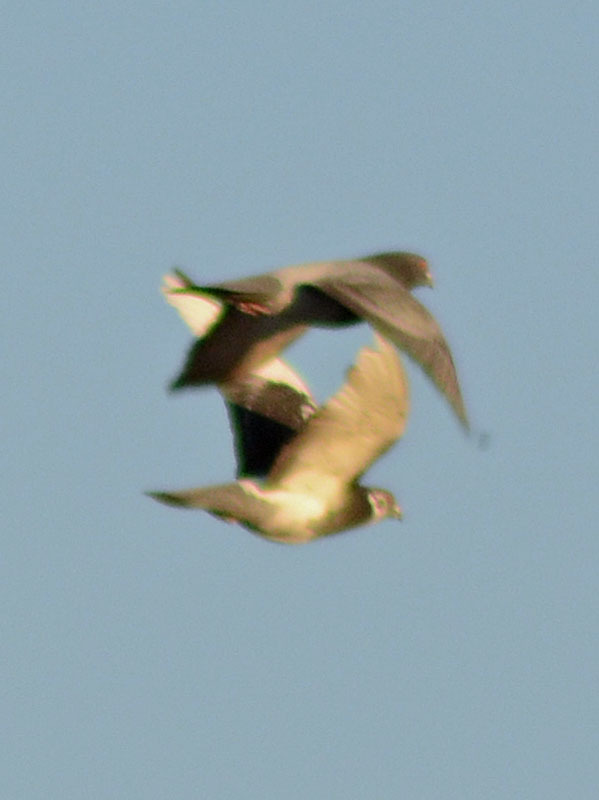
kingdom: Animalia
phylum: Chordata
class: Aves
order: Columbiformes
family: Columbidae
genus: Columba
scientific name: Columba livia
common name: Rock pigeon
